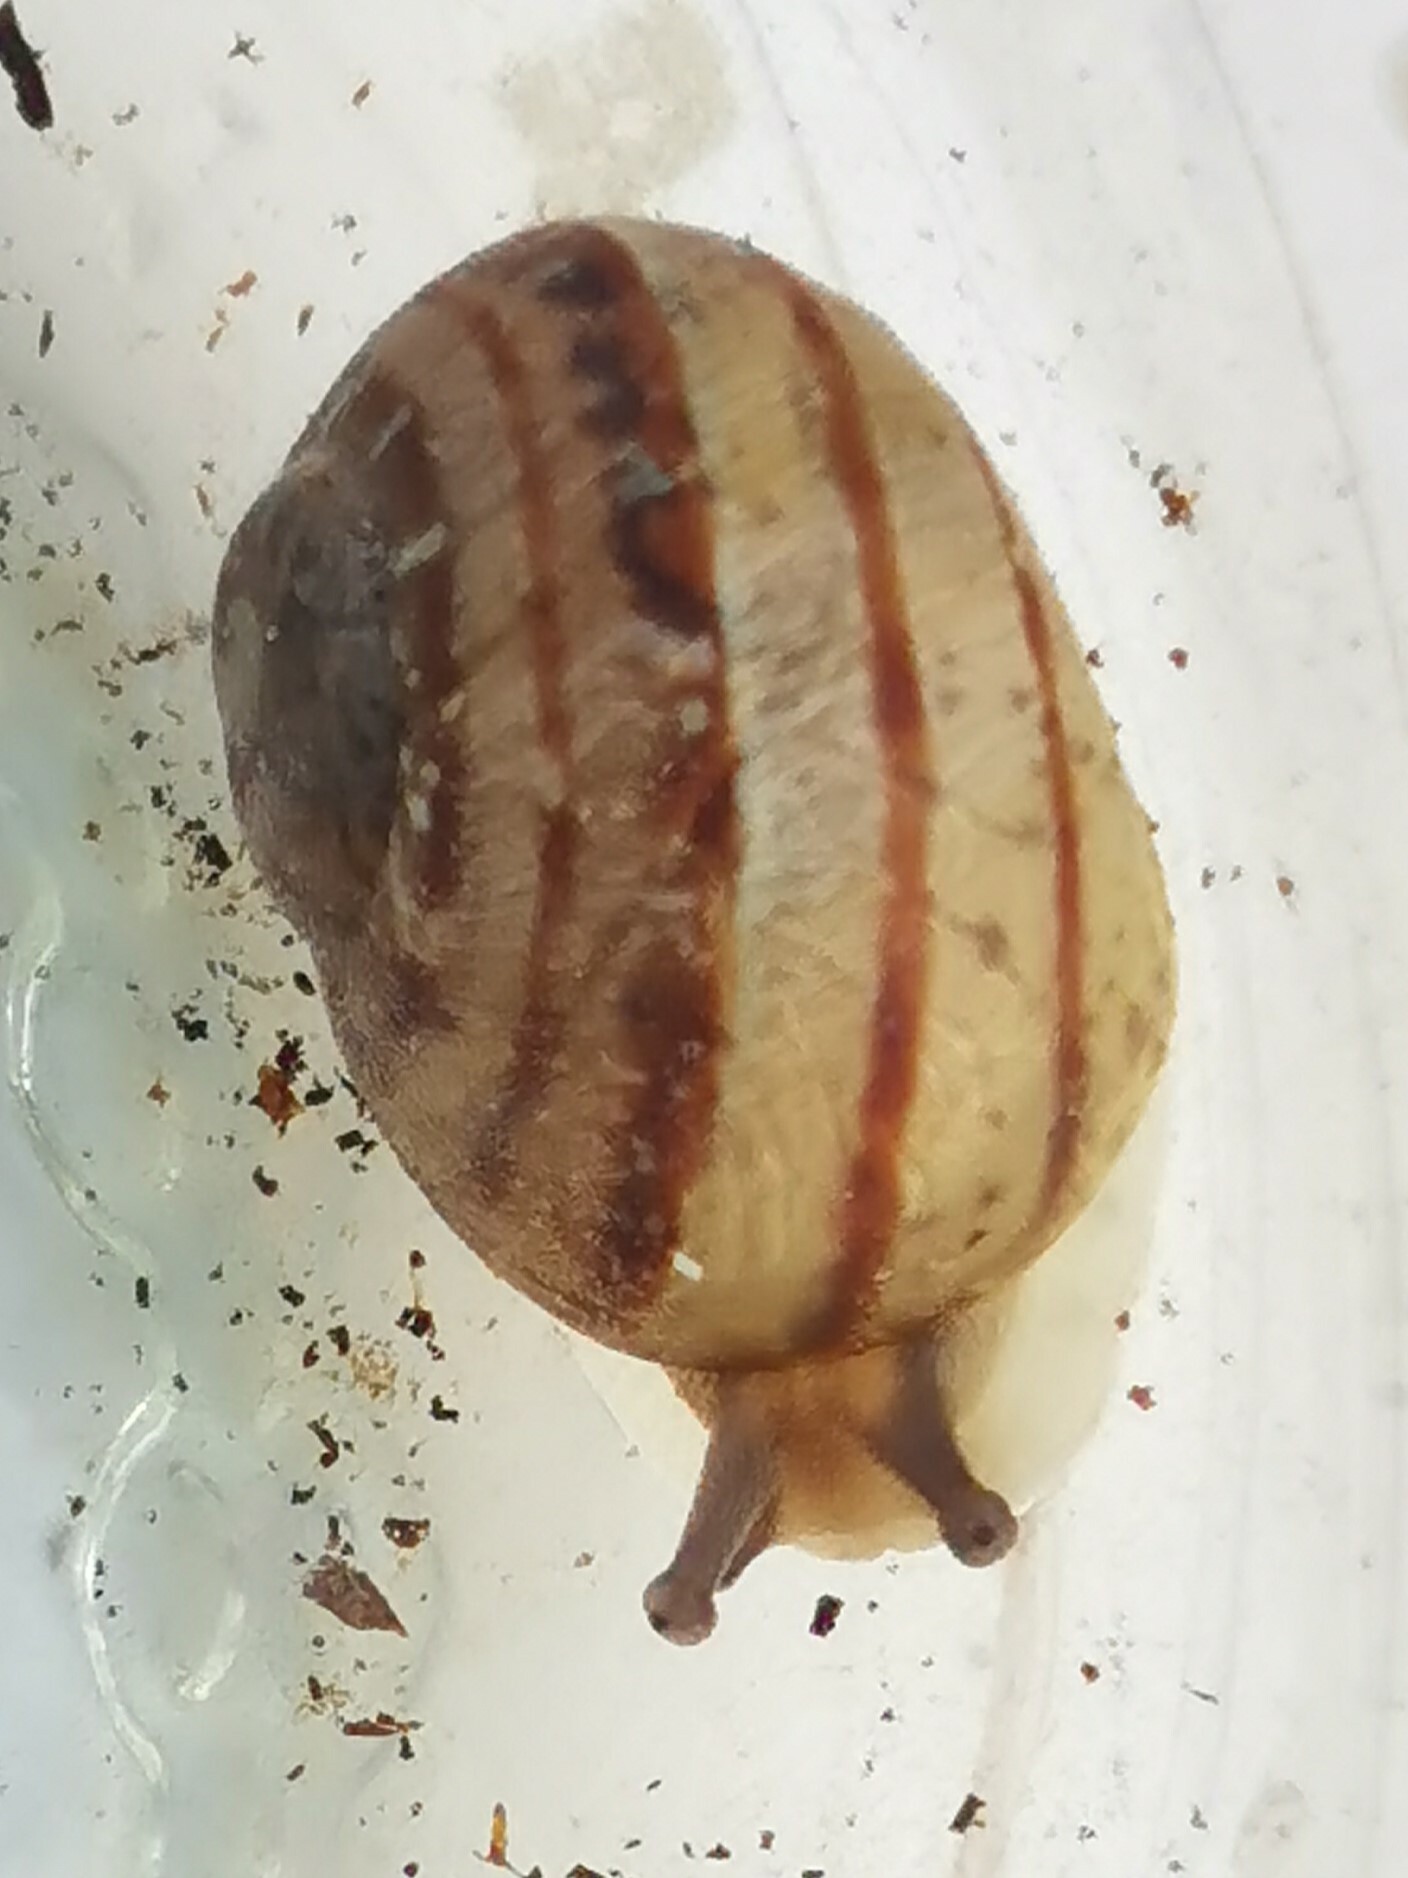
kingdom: Animalia
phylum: Mollusca
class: Gastropoda
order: Stylommatophora
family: Helicidae
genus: Cornu
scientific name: Cornu aspersum
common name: Brown garden snail
